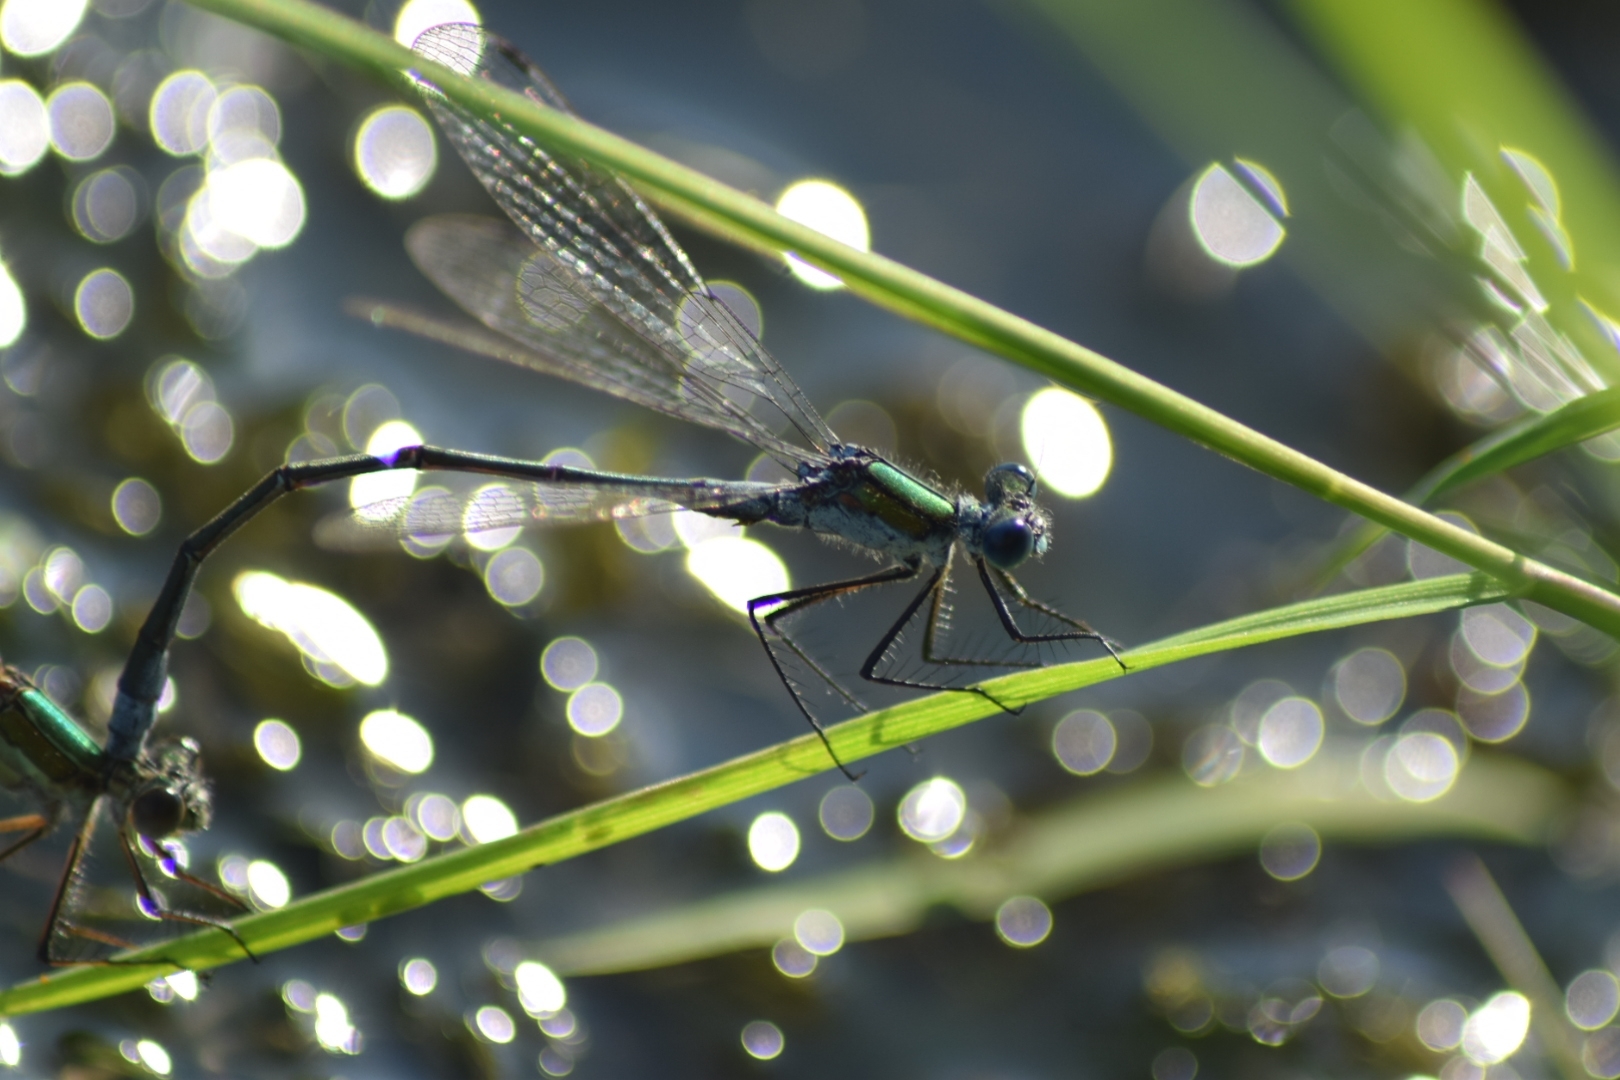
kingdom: Animalia
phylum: Arthropoda
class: Insecta
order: Odonata
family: Lestidae
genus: Lestes
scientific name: Lestes sponsa
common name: Common spreadwing
